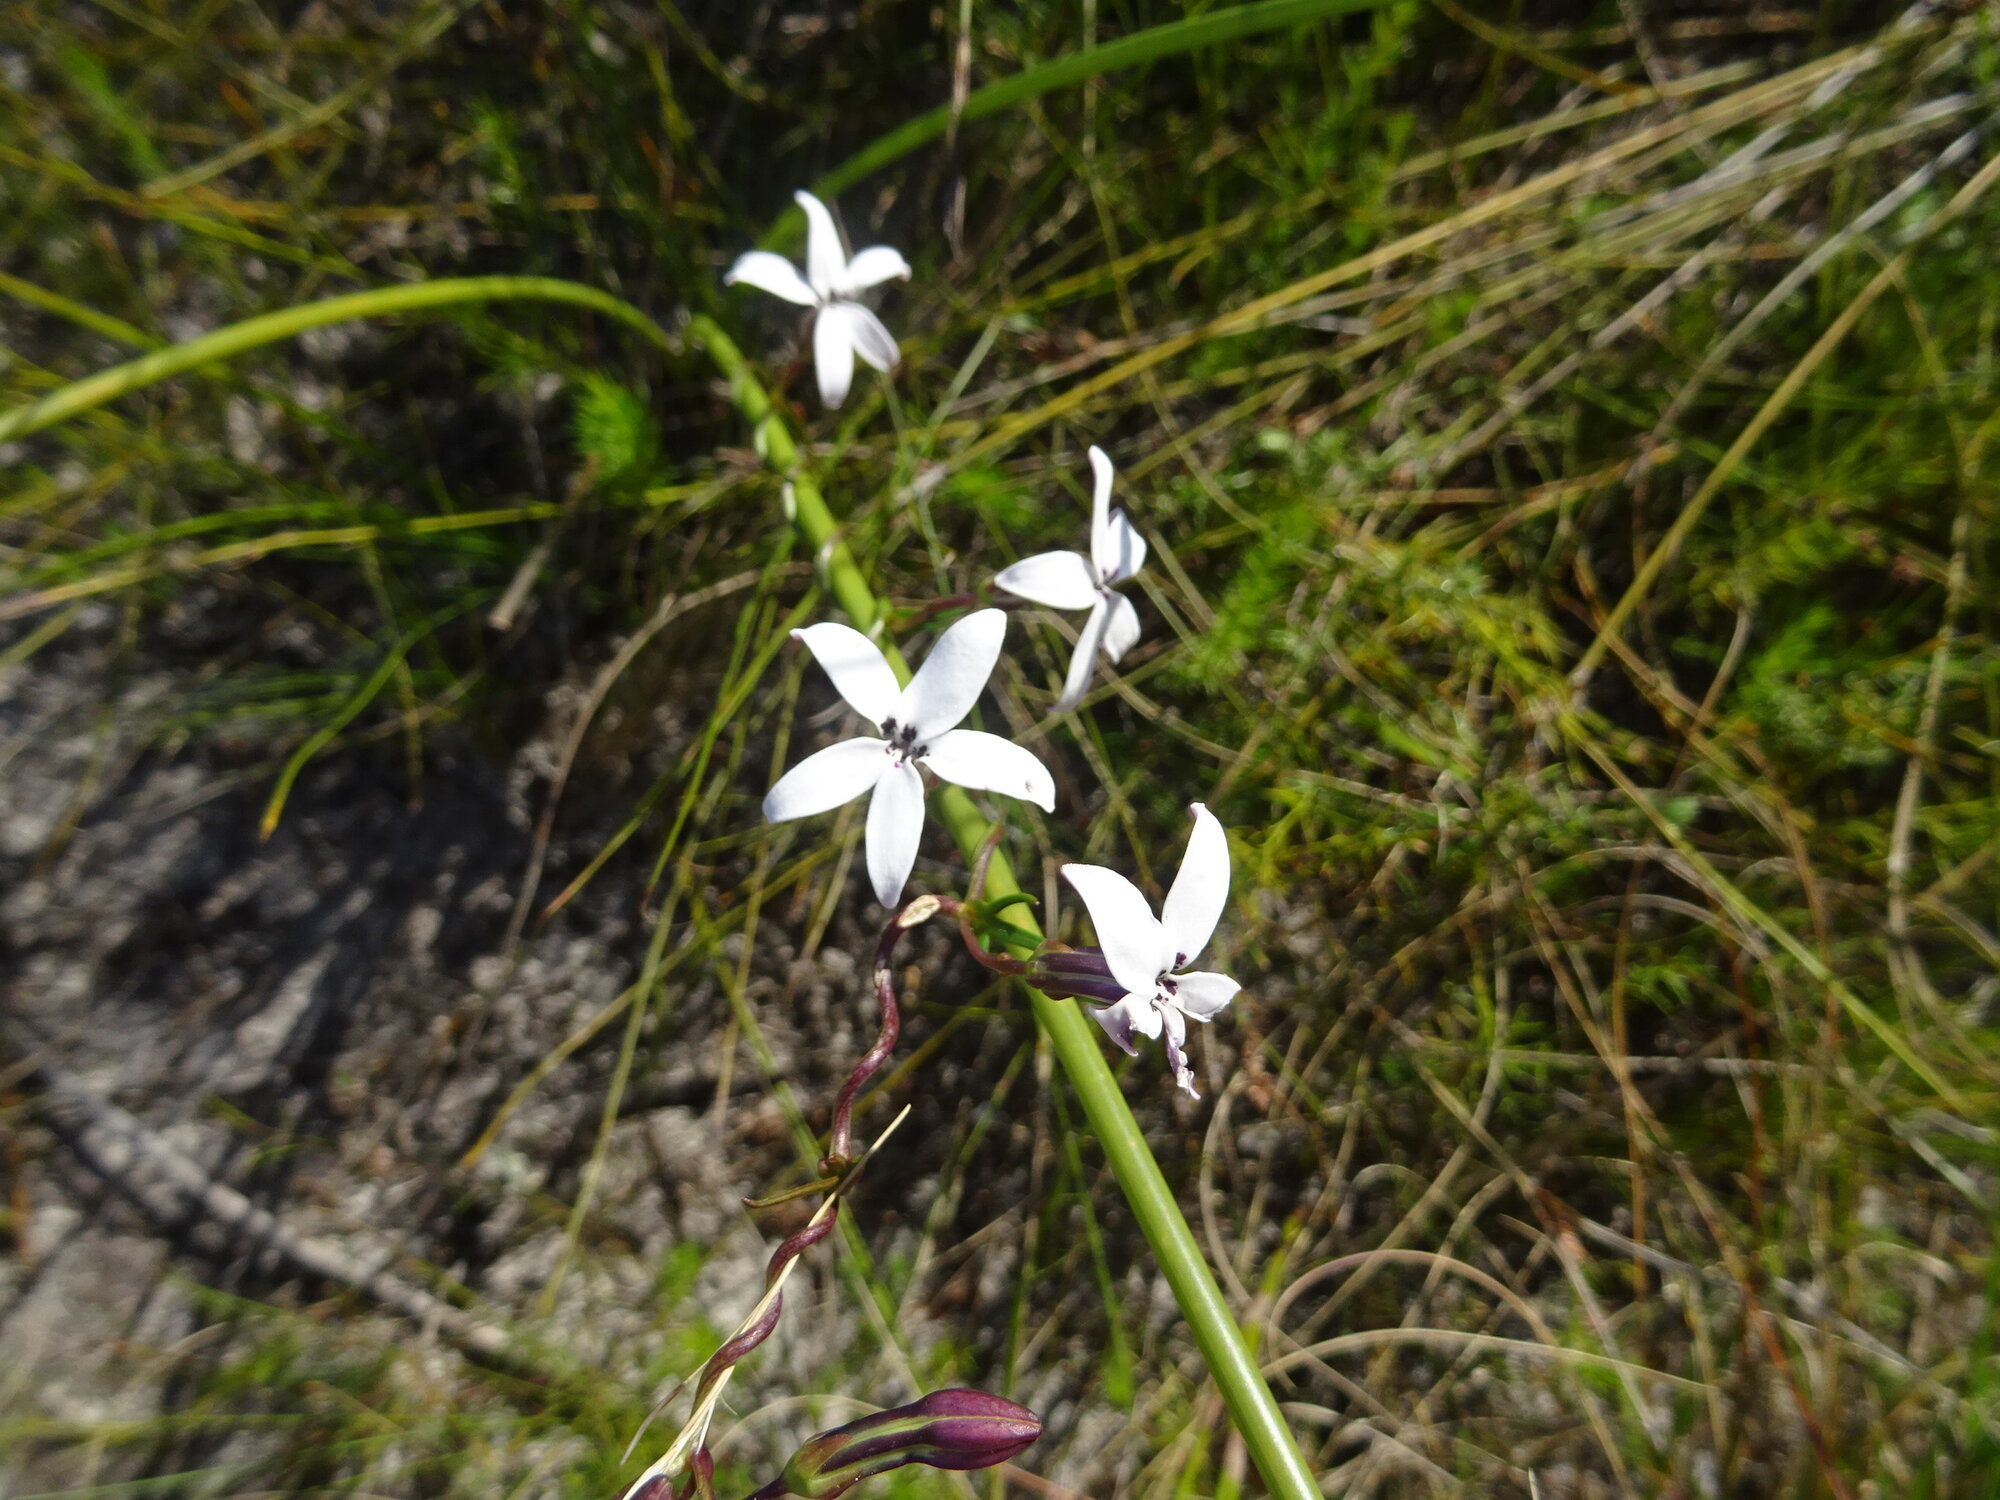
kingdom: Plantae
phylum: Tracheophyta
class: Magnoliopsida
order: Asterales
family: Campanulaceae
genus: Cyphia
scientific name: Cyphia volubilis
